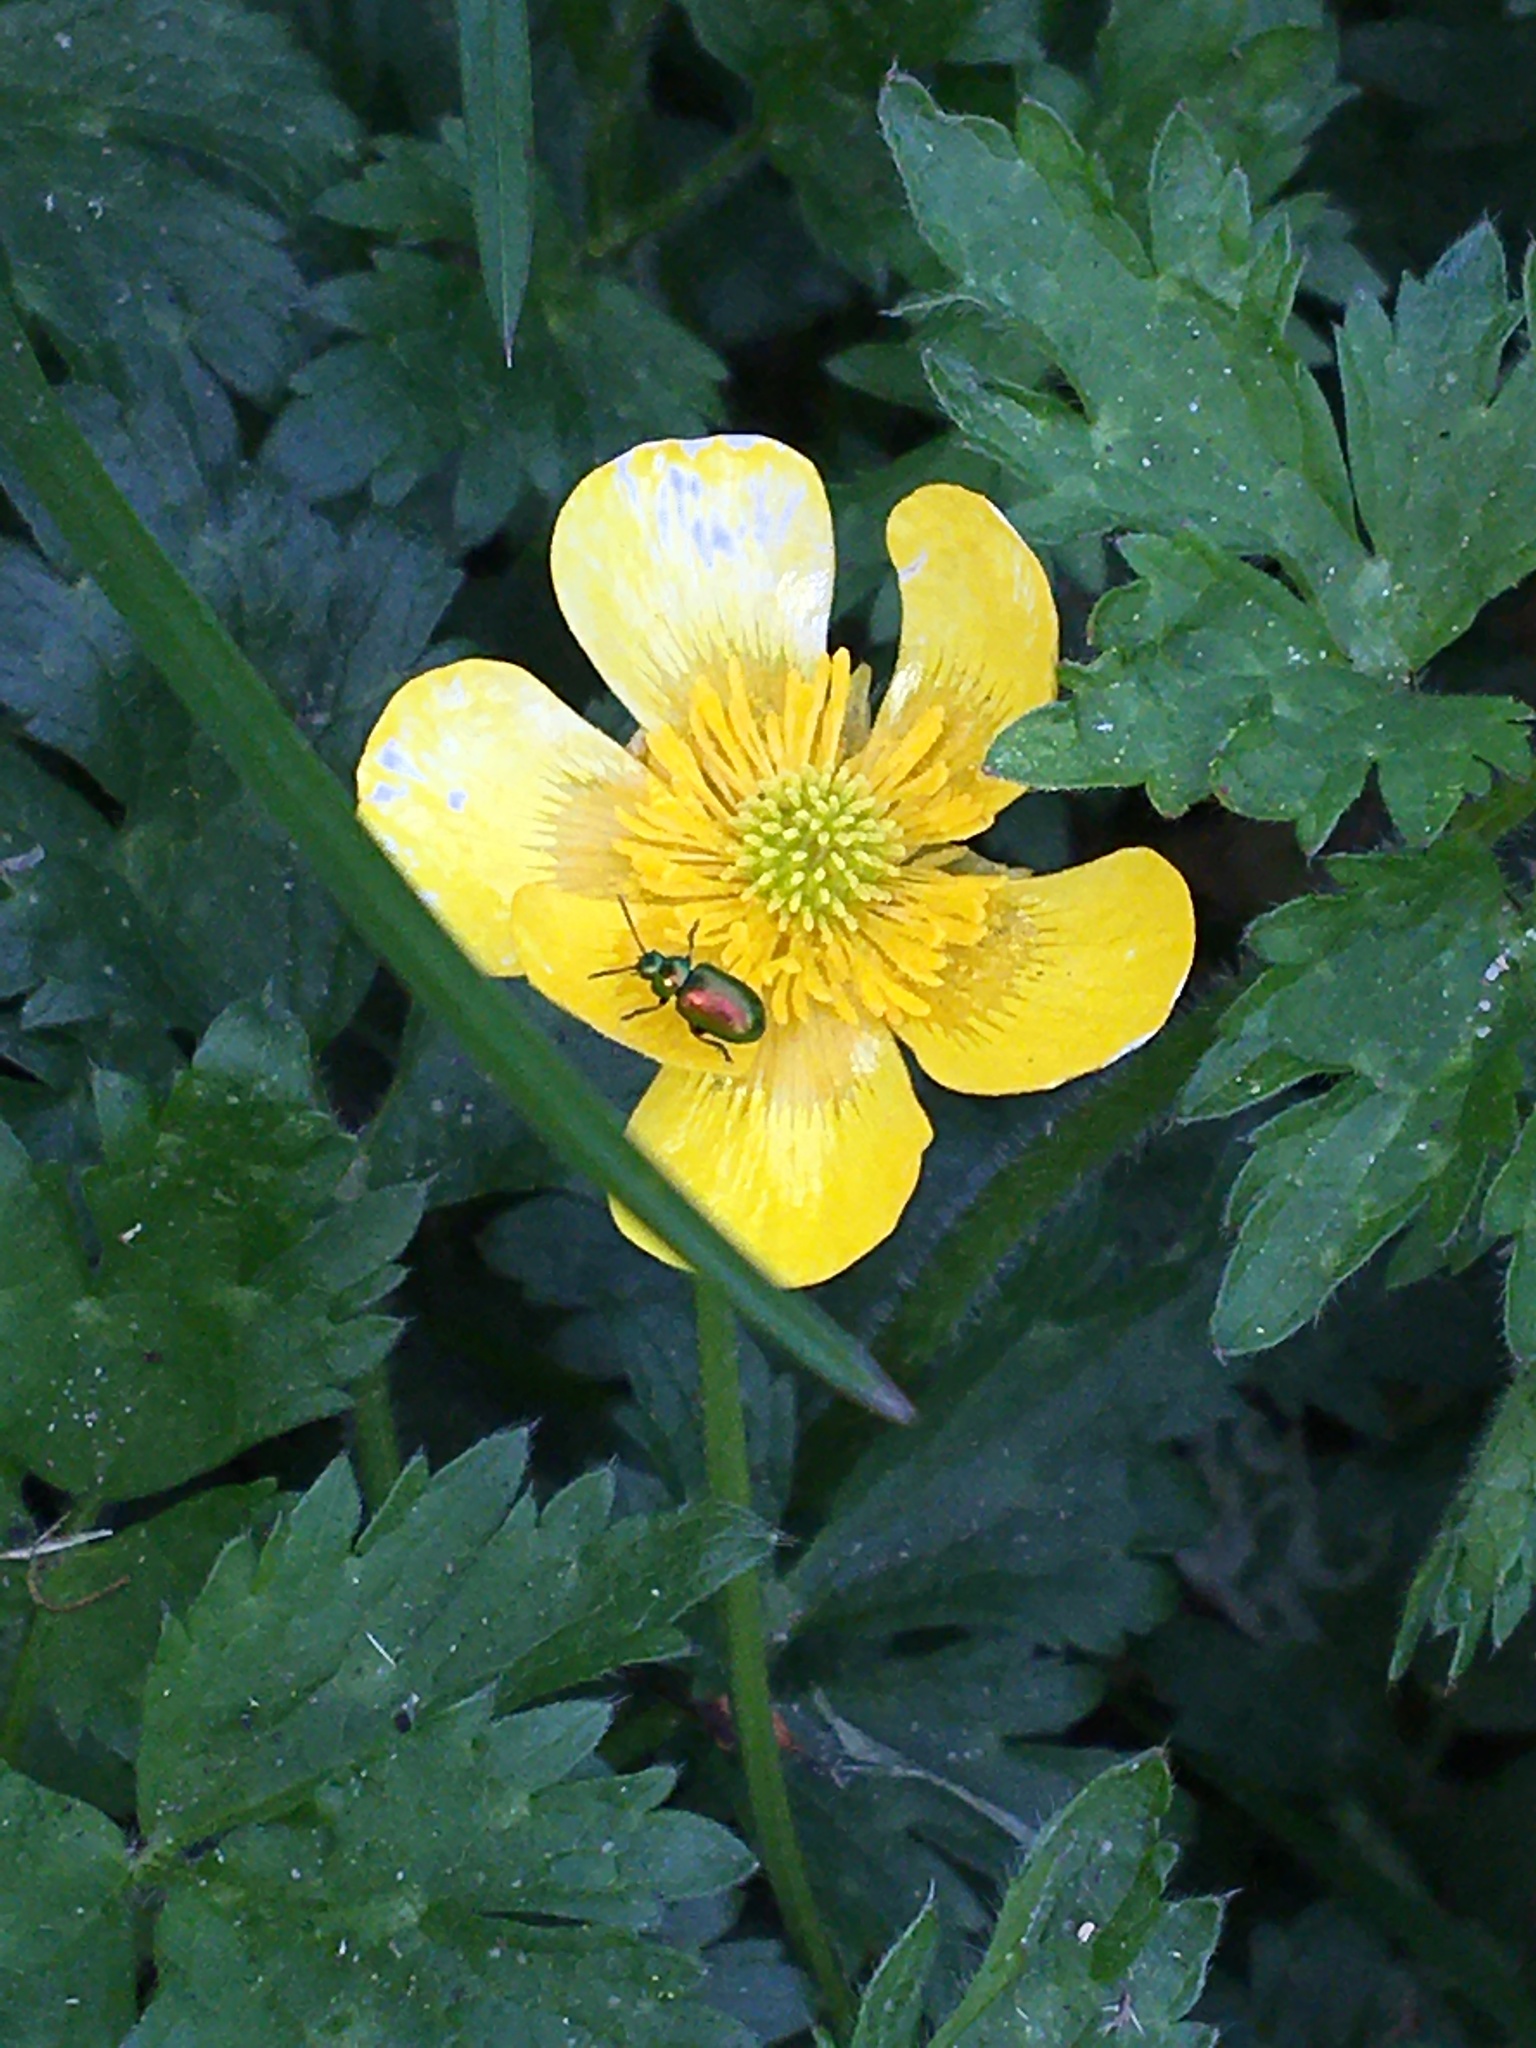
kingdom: Animalia
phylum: Arthropoda
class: Insecta
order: Coleoptera
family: Chrysomelidae
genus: Gastrophysa
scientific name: Gastrophysa viridula
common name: Green dock beetle
